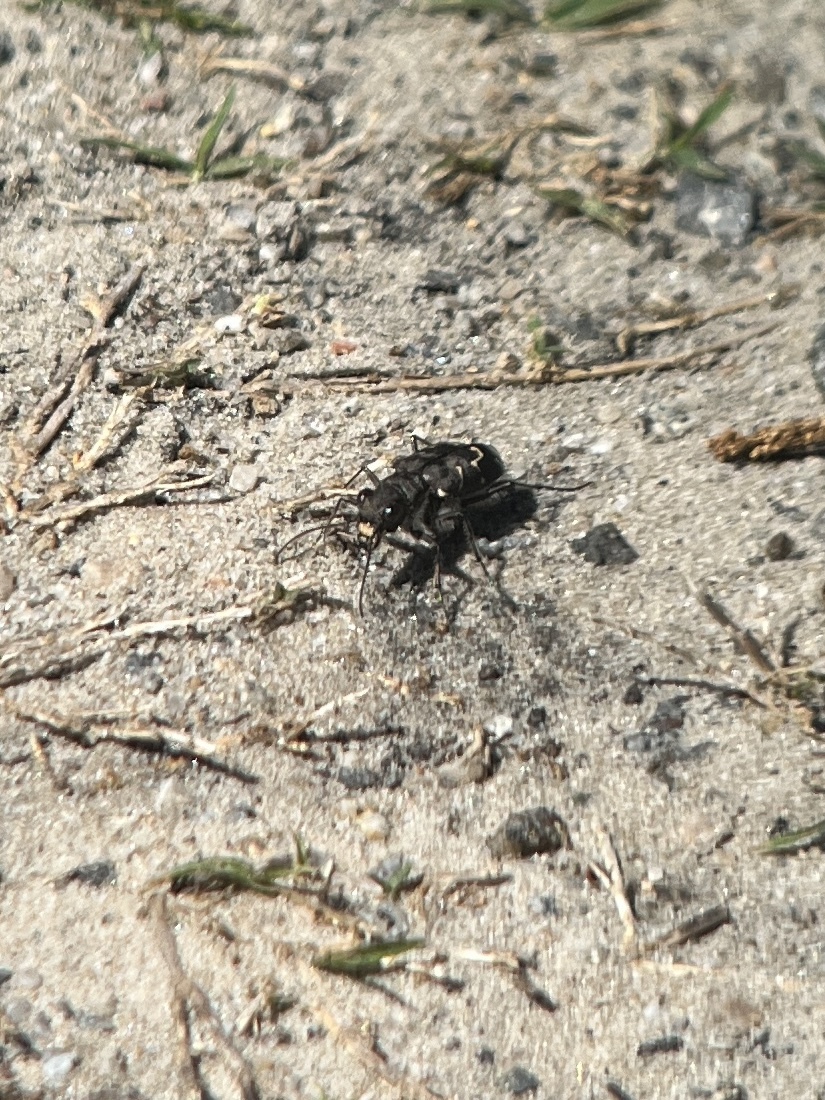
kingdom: Animalia
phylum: Arthropoda
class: Insecta
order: Coleoptera
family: Carabidae
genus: Cicindela
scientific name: Cicindela tranquebarica
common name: Oblique-lined tiger beetle
